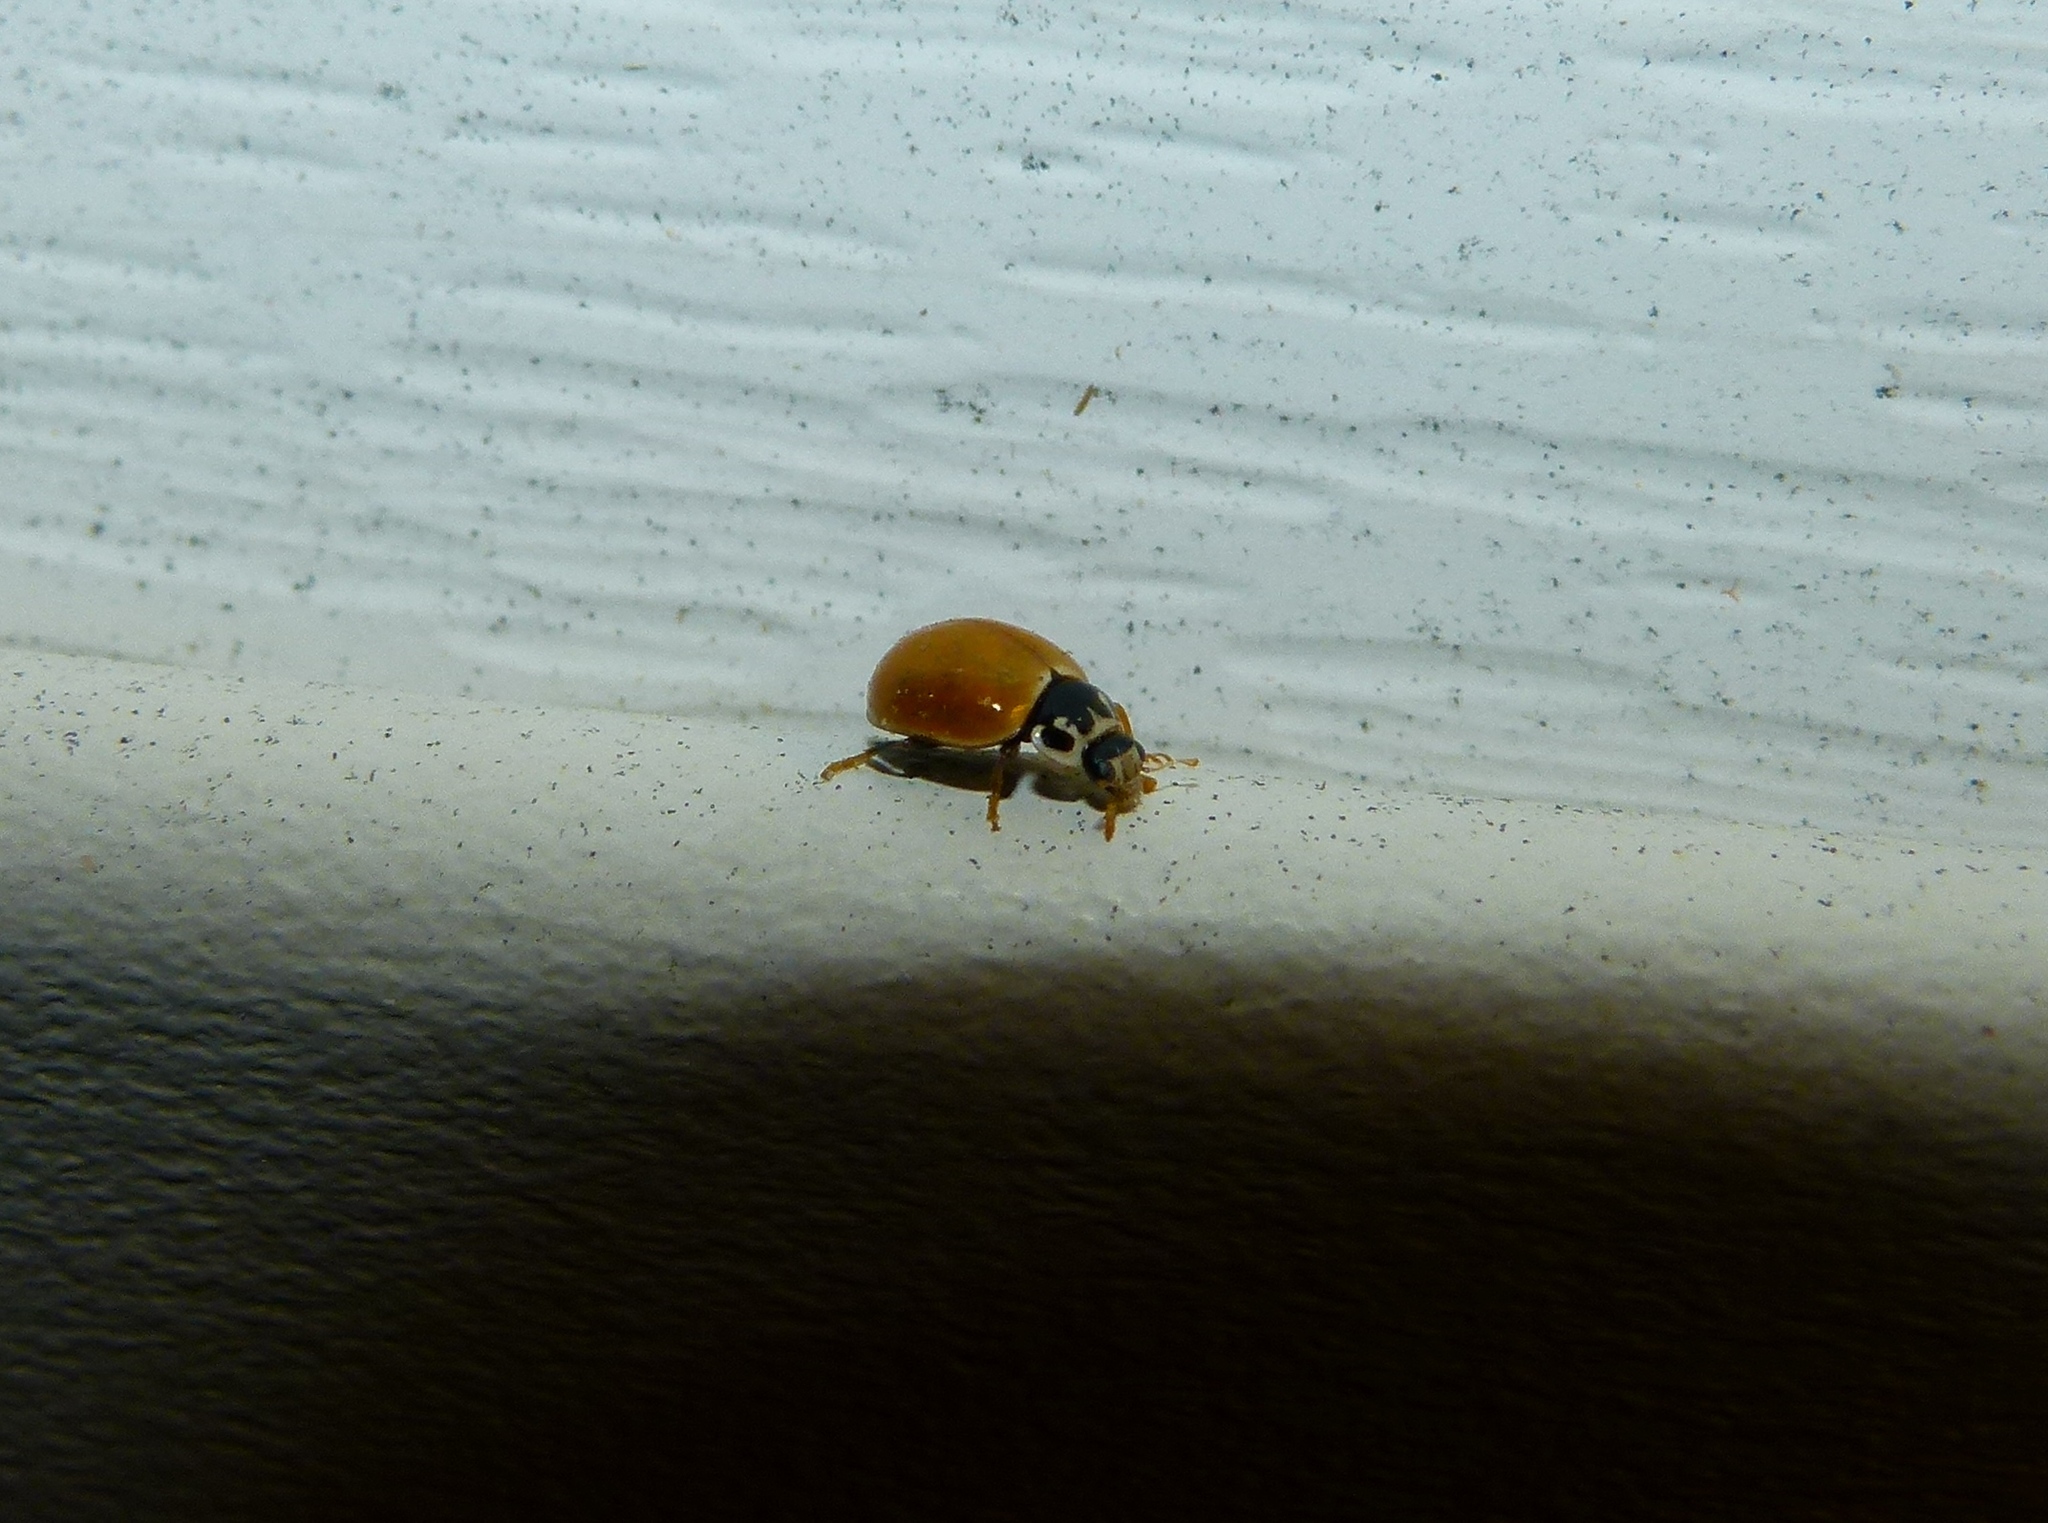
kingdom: Animalia
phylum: Arthropoda
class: Insecta
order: Coleoptera
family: Coccinellidae
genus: Cycloneda
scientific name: Cycloneda munda
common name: Polished lady beetle
